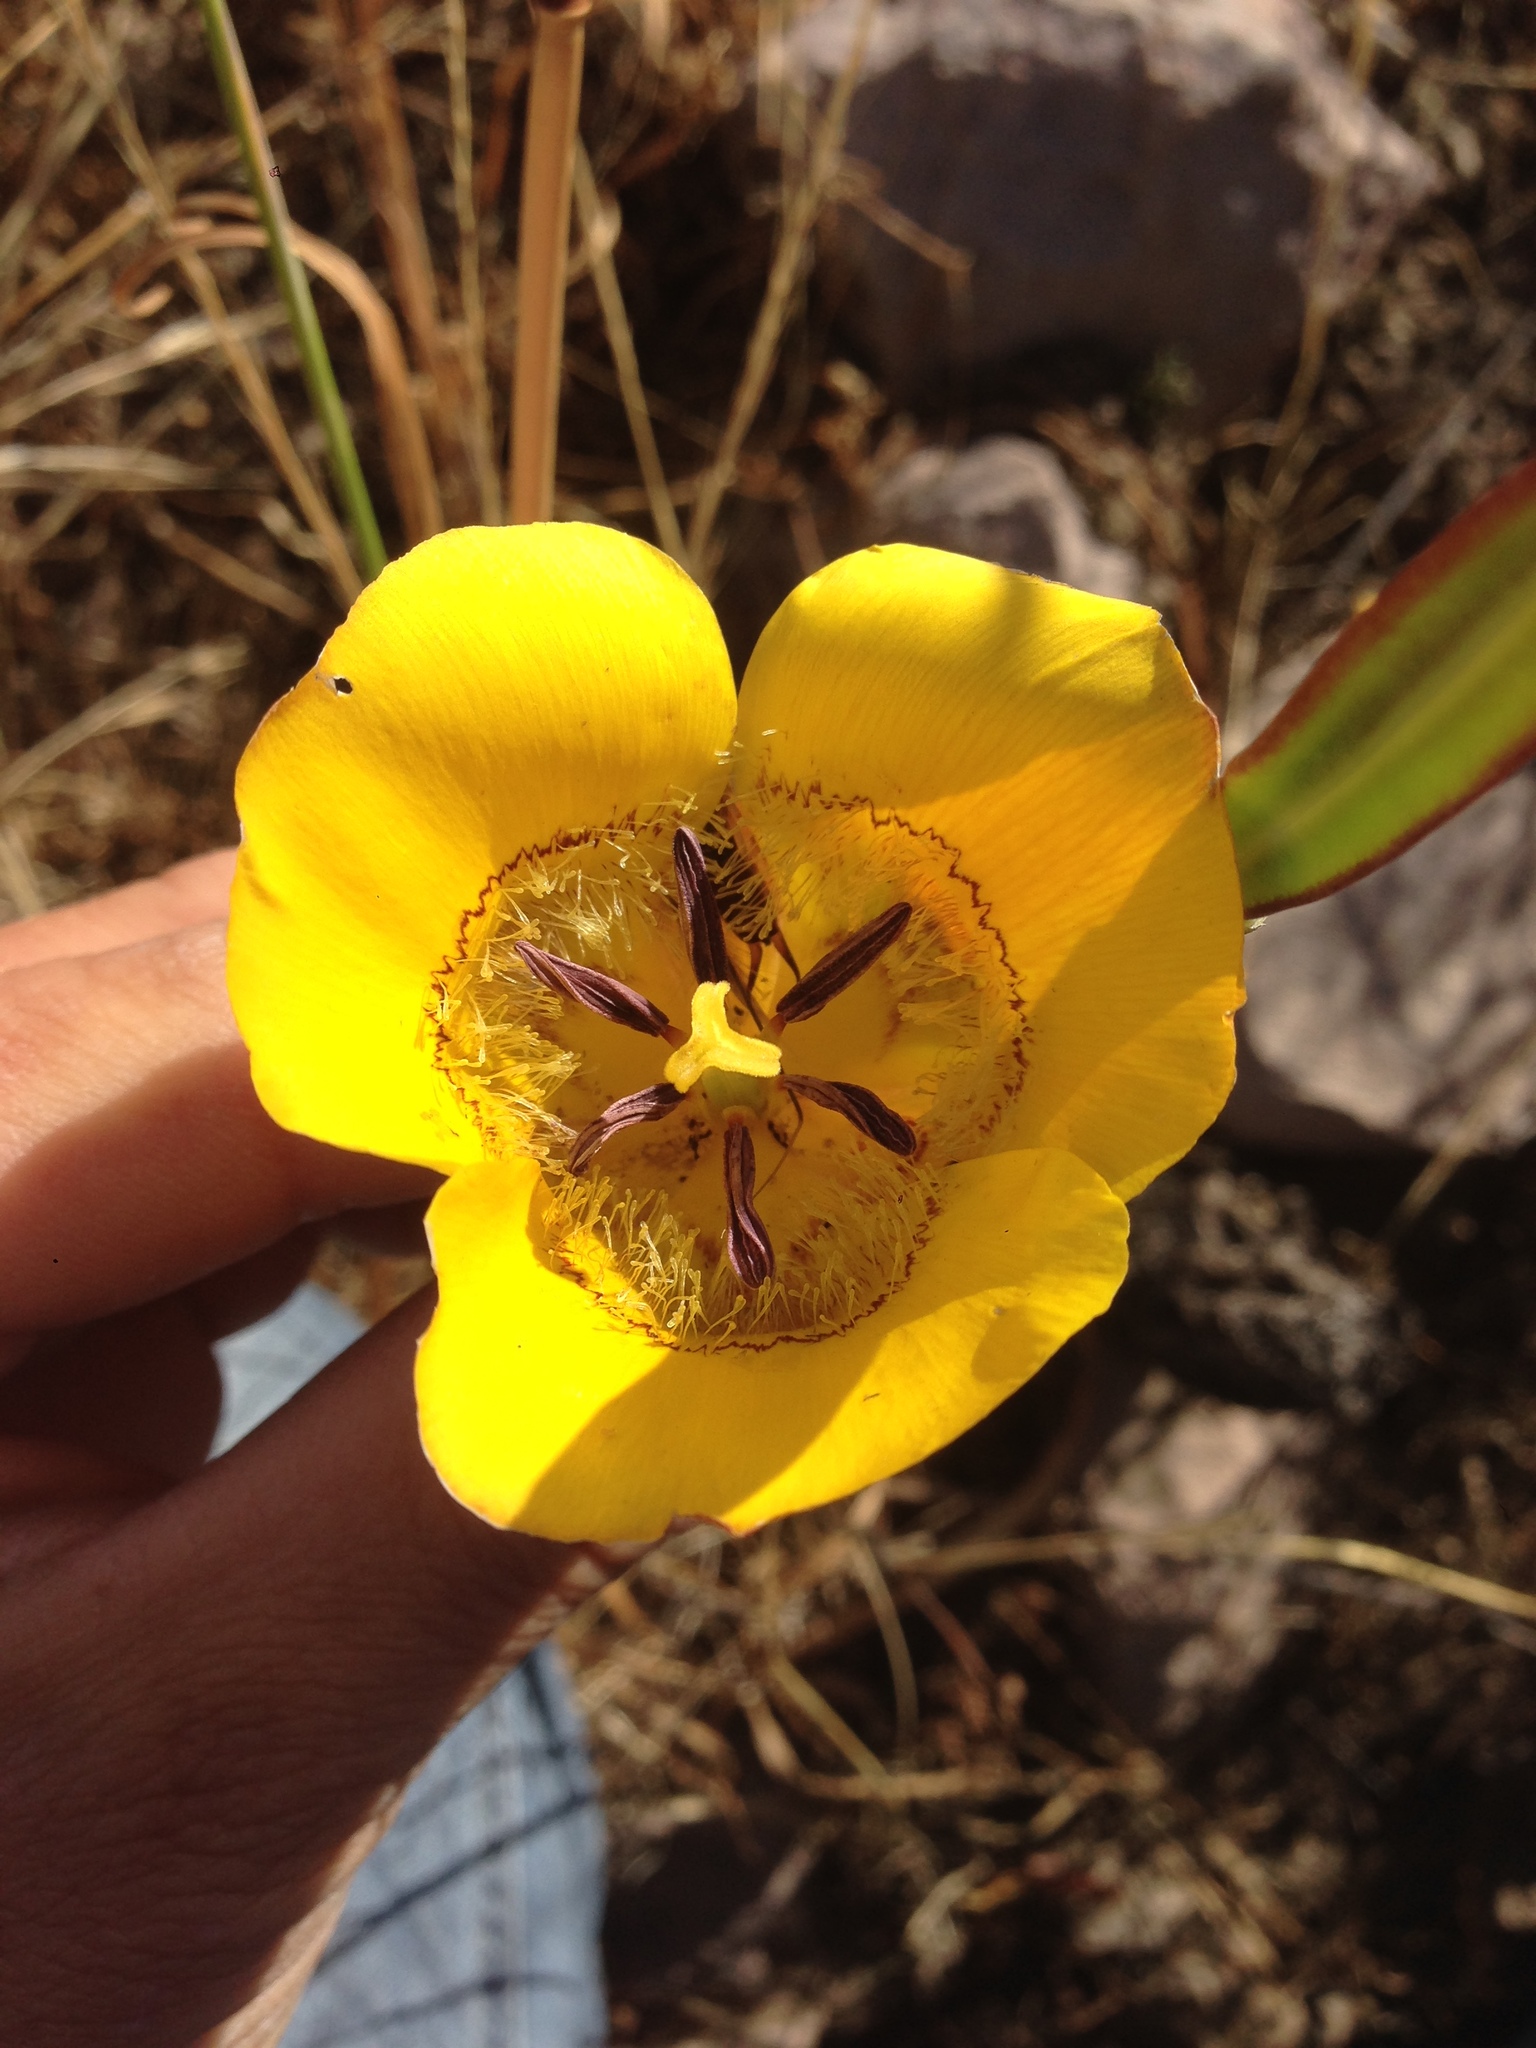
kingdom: Plantae
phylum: Tracheophyta
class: Liliopsida
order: Liliales
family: Liliaceae
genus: Calochortus
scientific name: Calochortus clavatus
